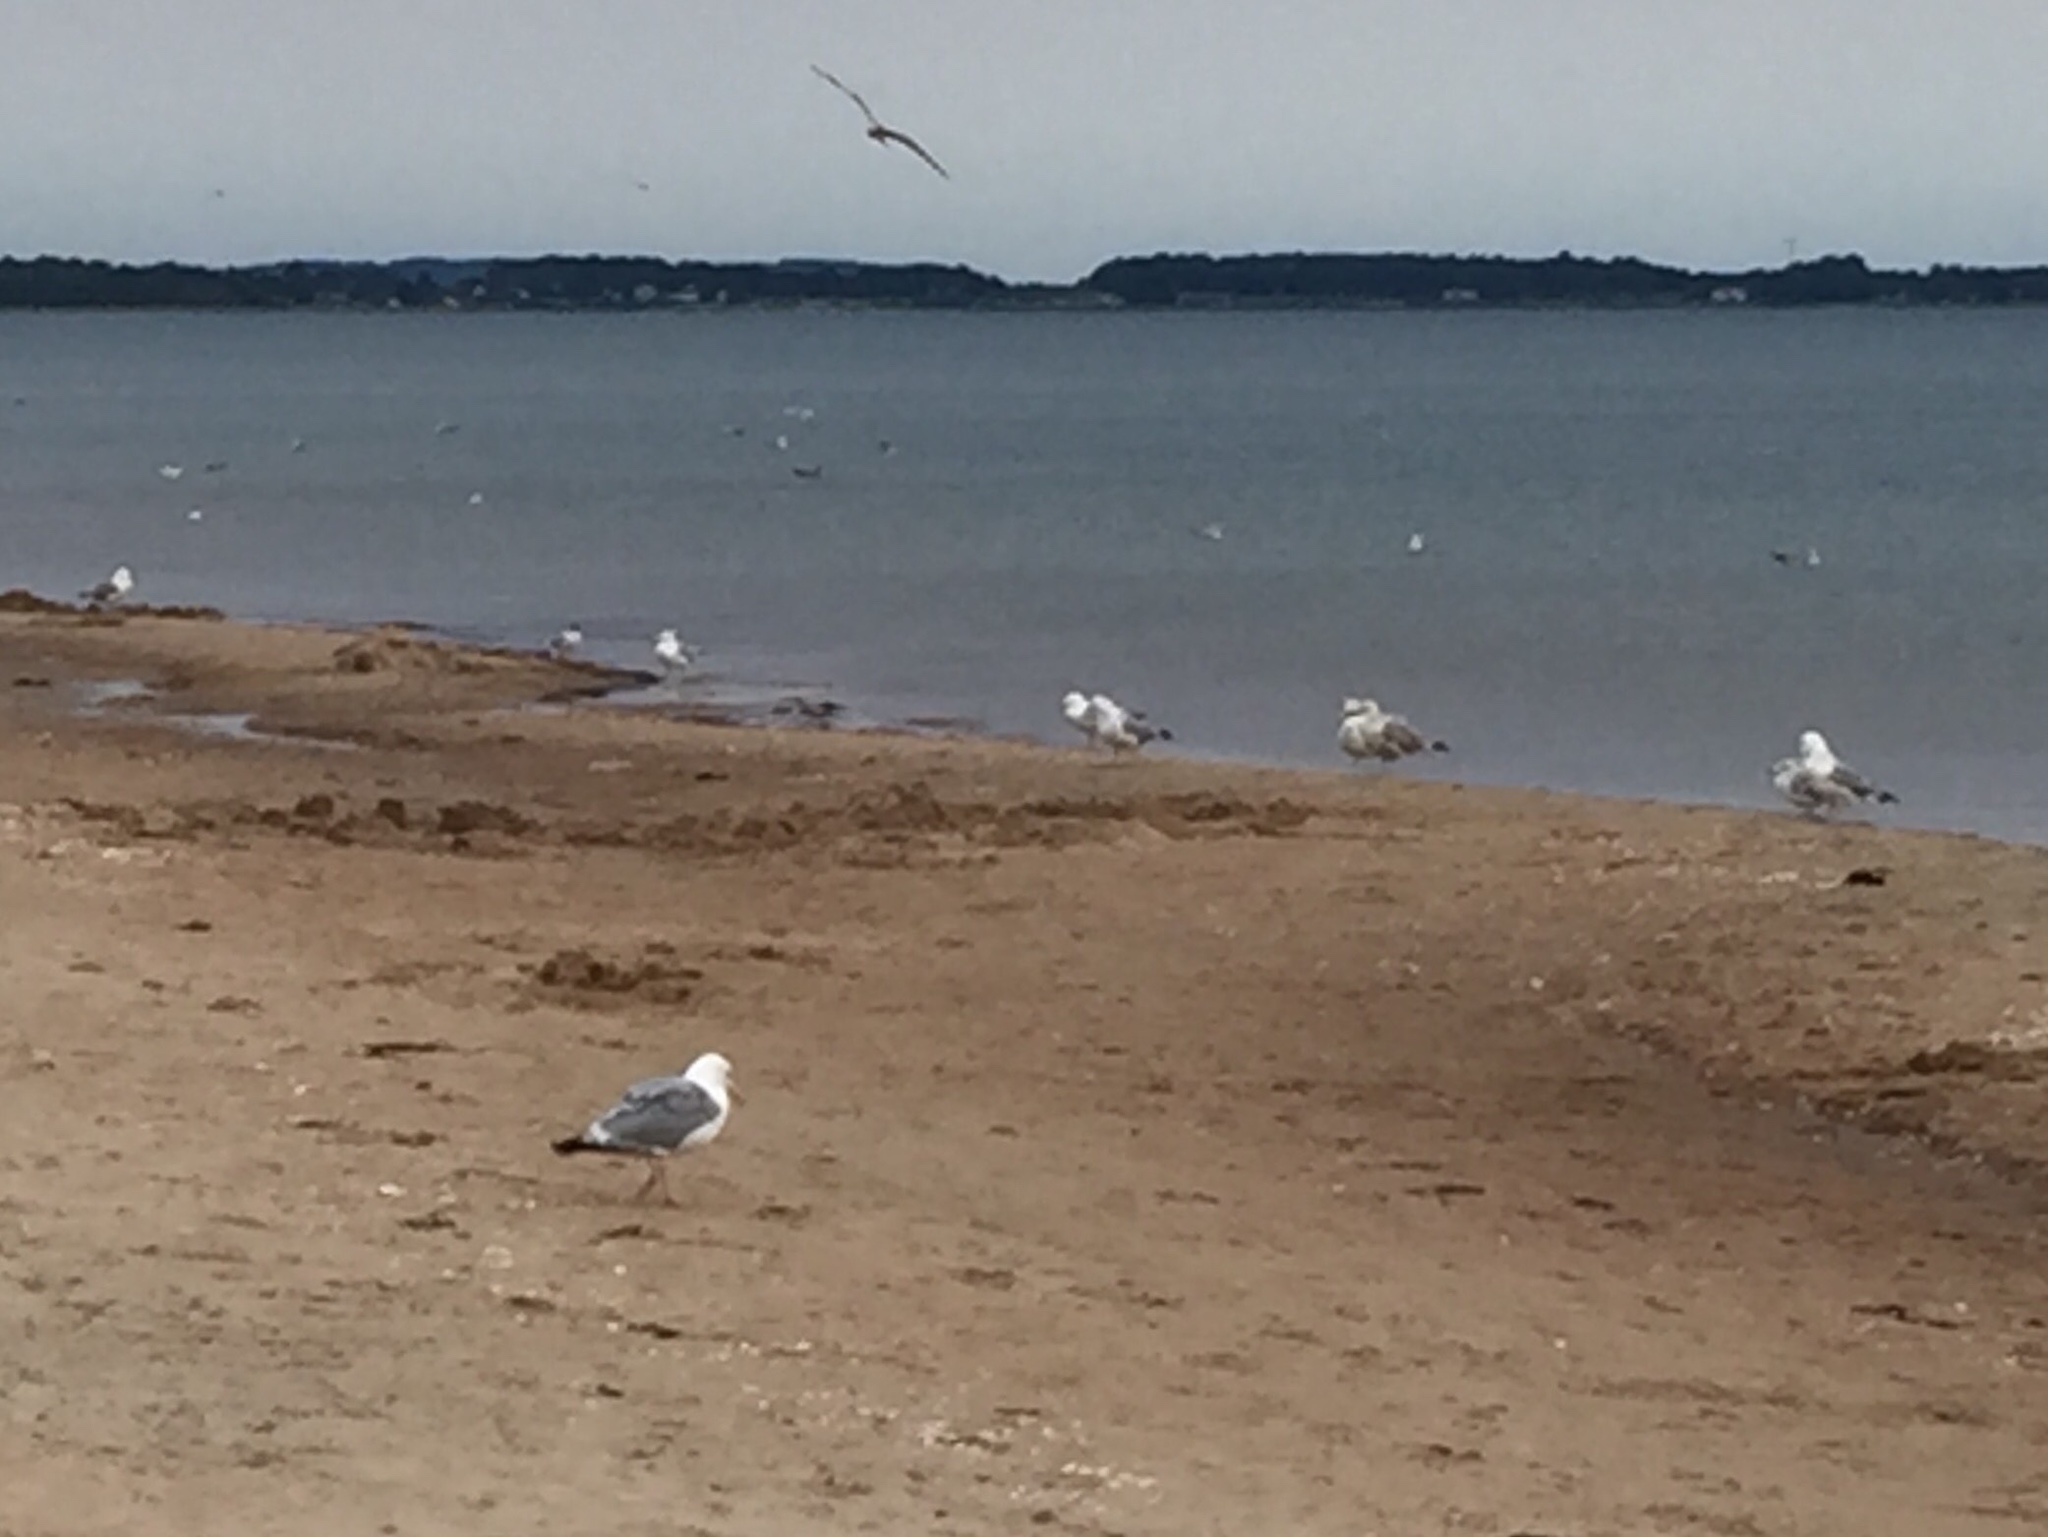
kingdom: Animalia
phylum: Chordata
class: Aves
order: Charadriiformes
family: Laridae
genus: Larus
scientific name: Larus argentatus
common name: Herring gull
